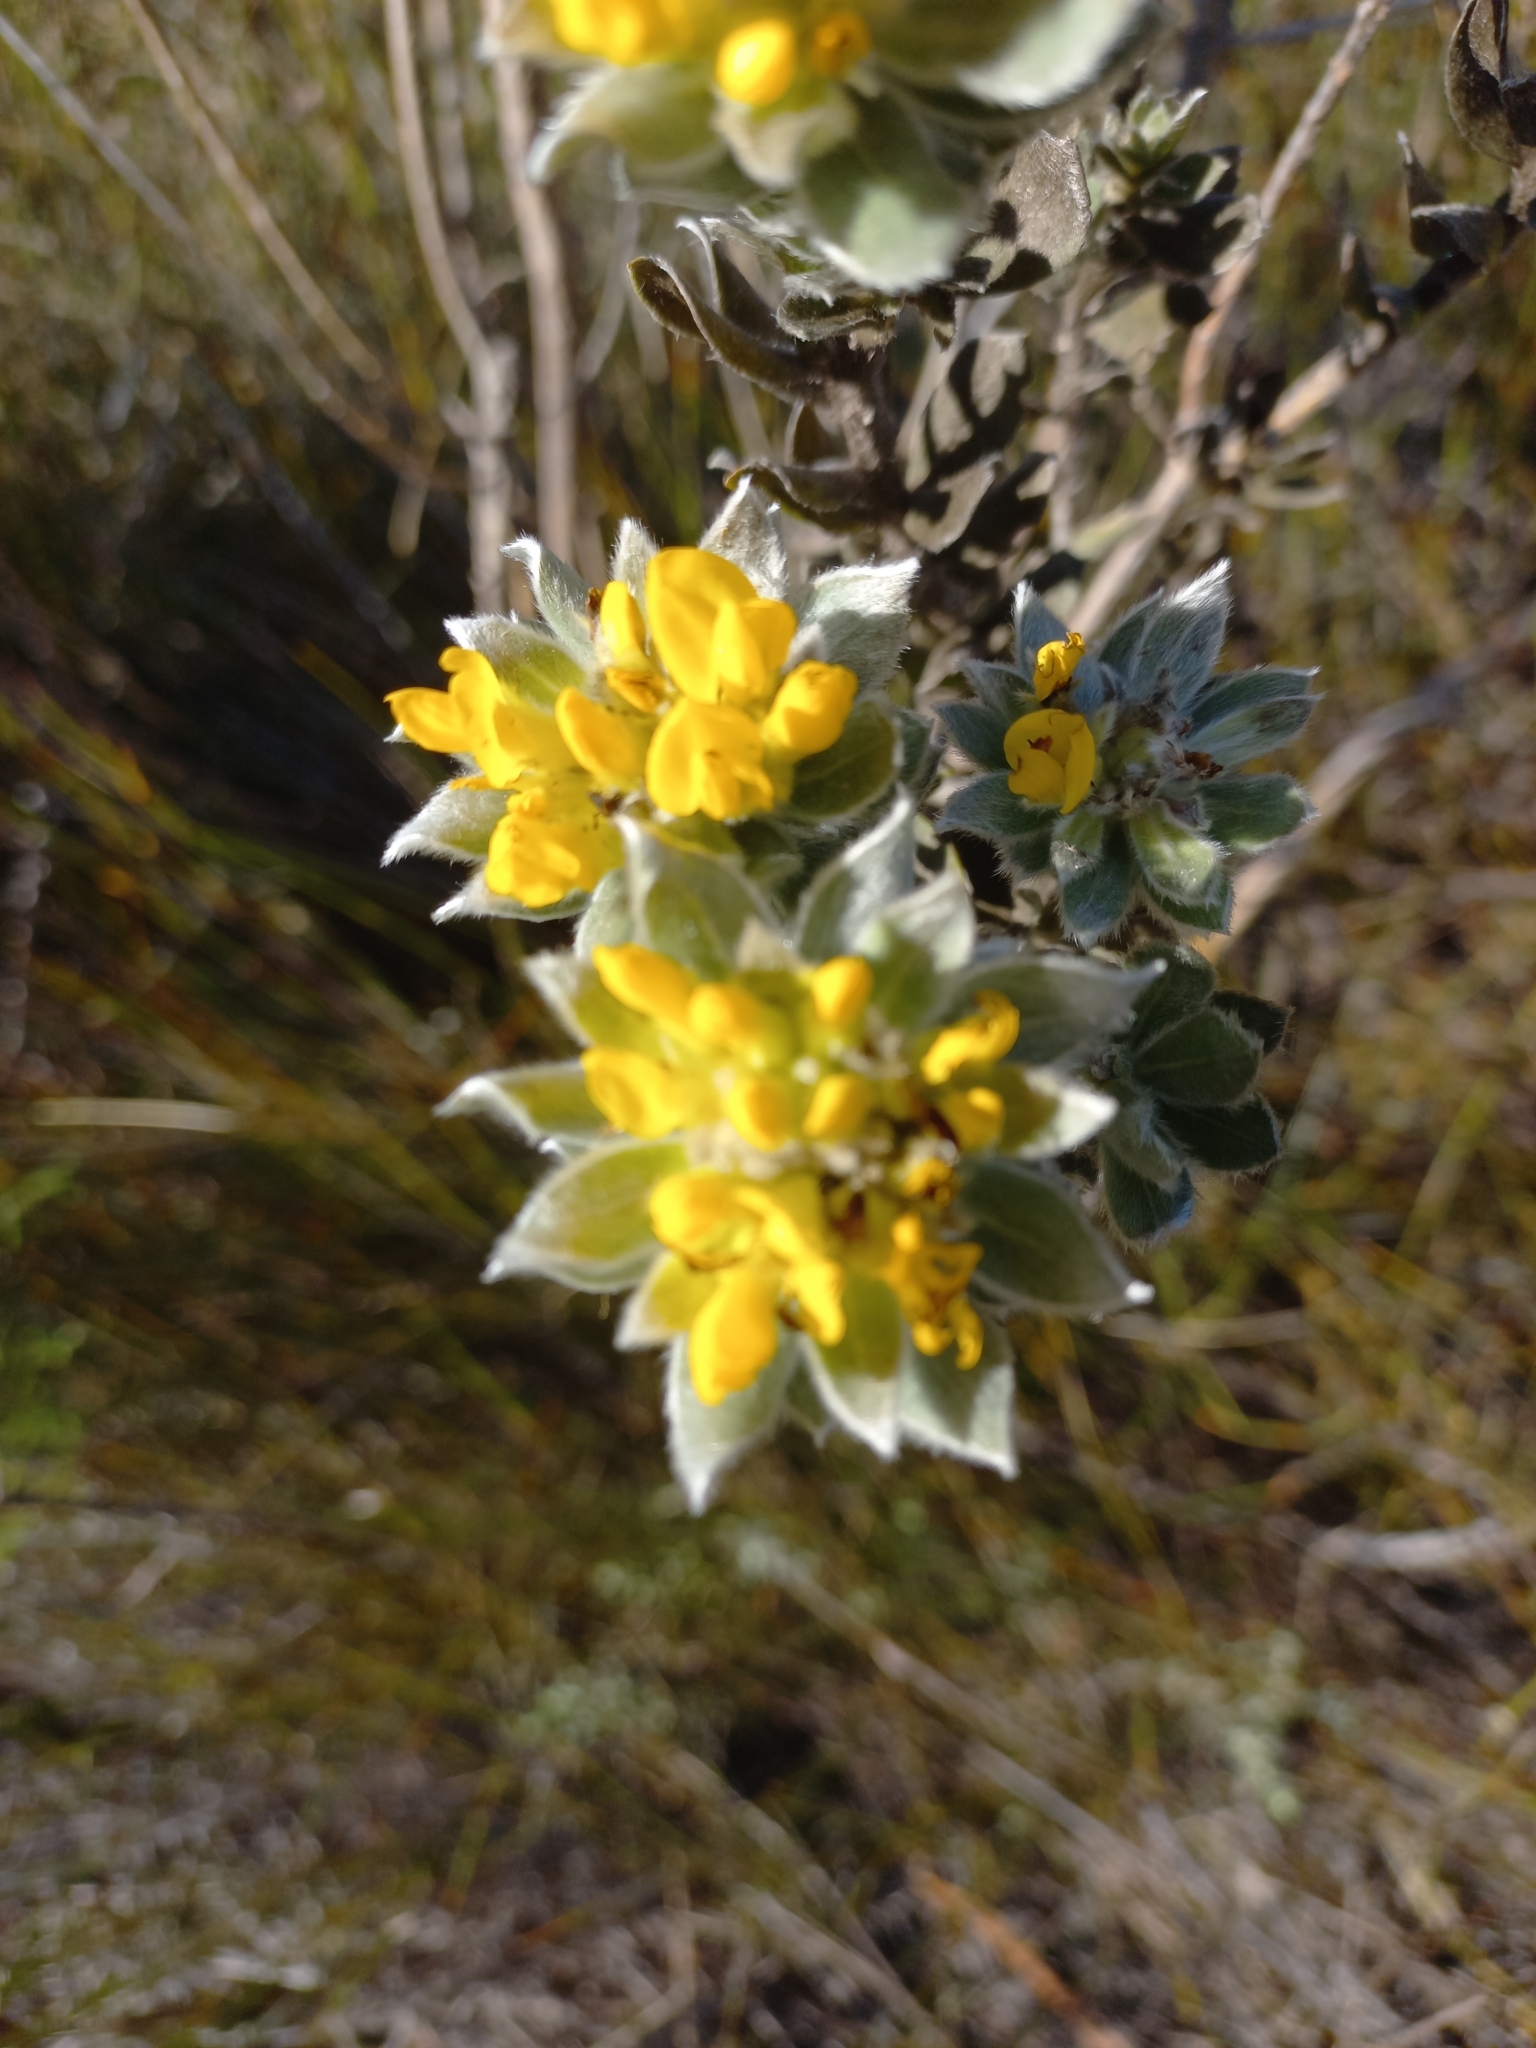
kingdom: Plantae
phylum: Tracheophyta
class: Magnoliopsida
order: Fabales
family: Fabaceae
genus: Xiphotheca
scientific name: Xiphotheca fruticosa
